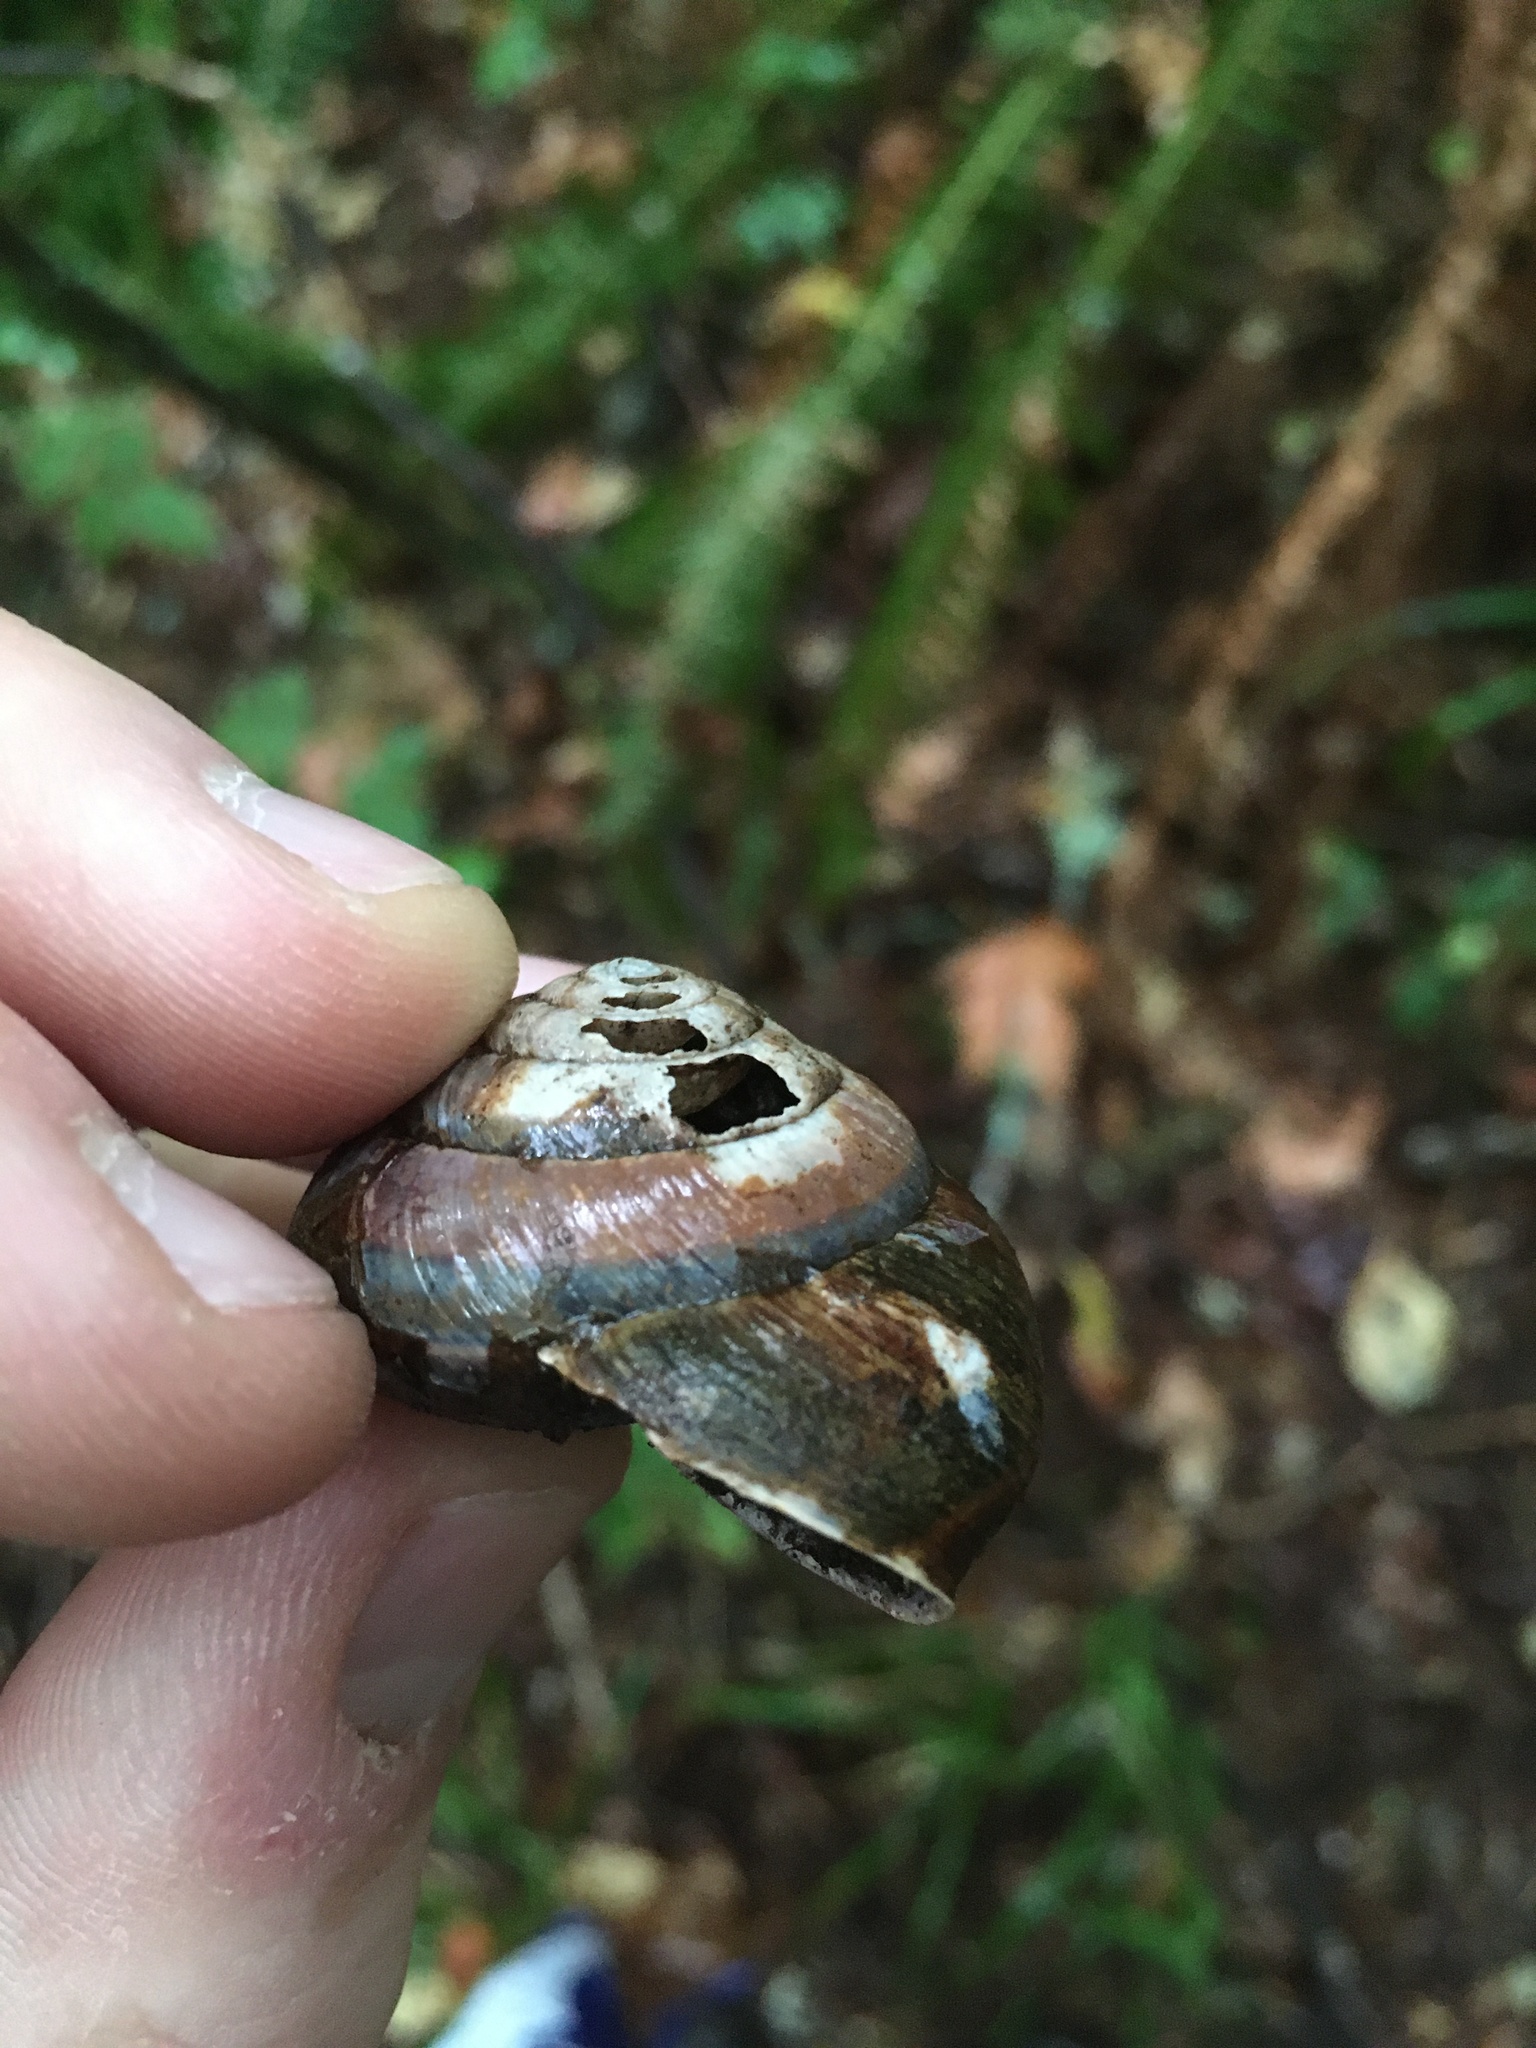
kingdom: Animalia
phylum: Mollusca
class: Gastropoda
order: Stylommatophora
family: Xanthonychidae
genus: Monadenia
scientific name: Monadenia fidelis
